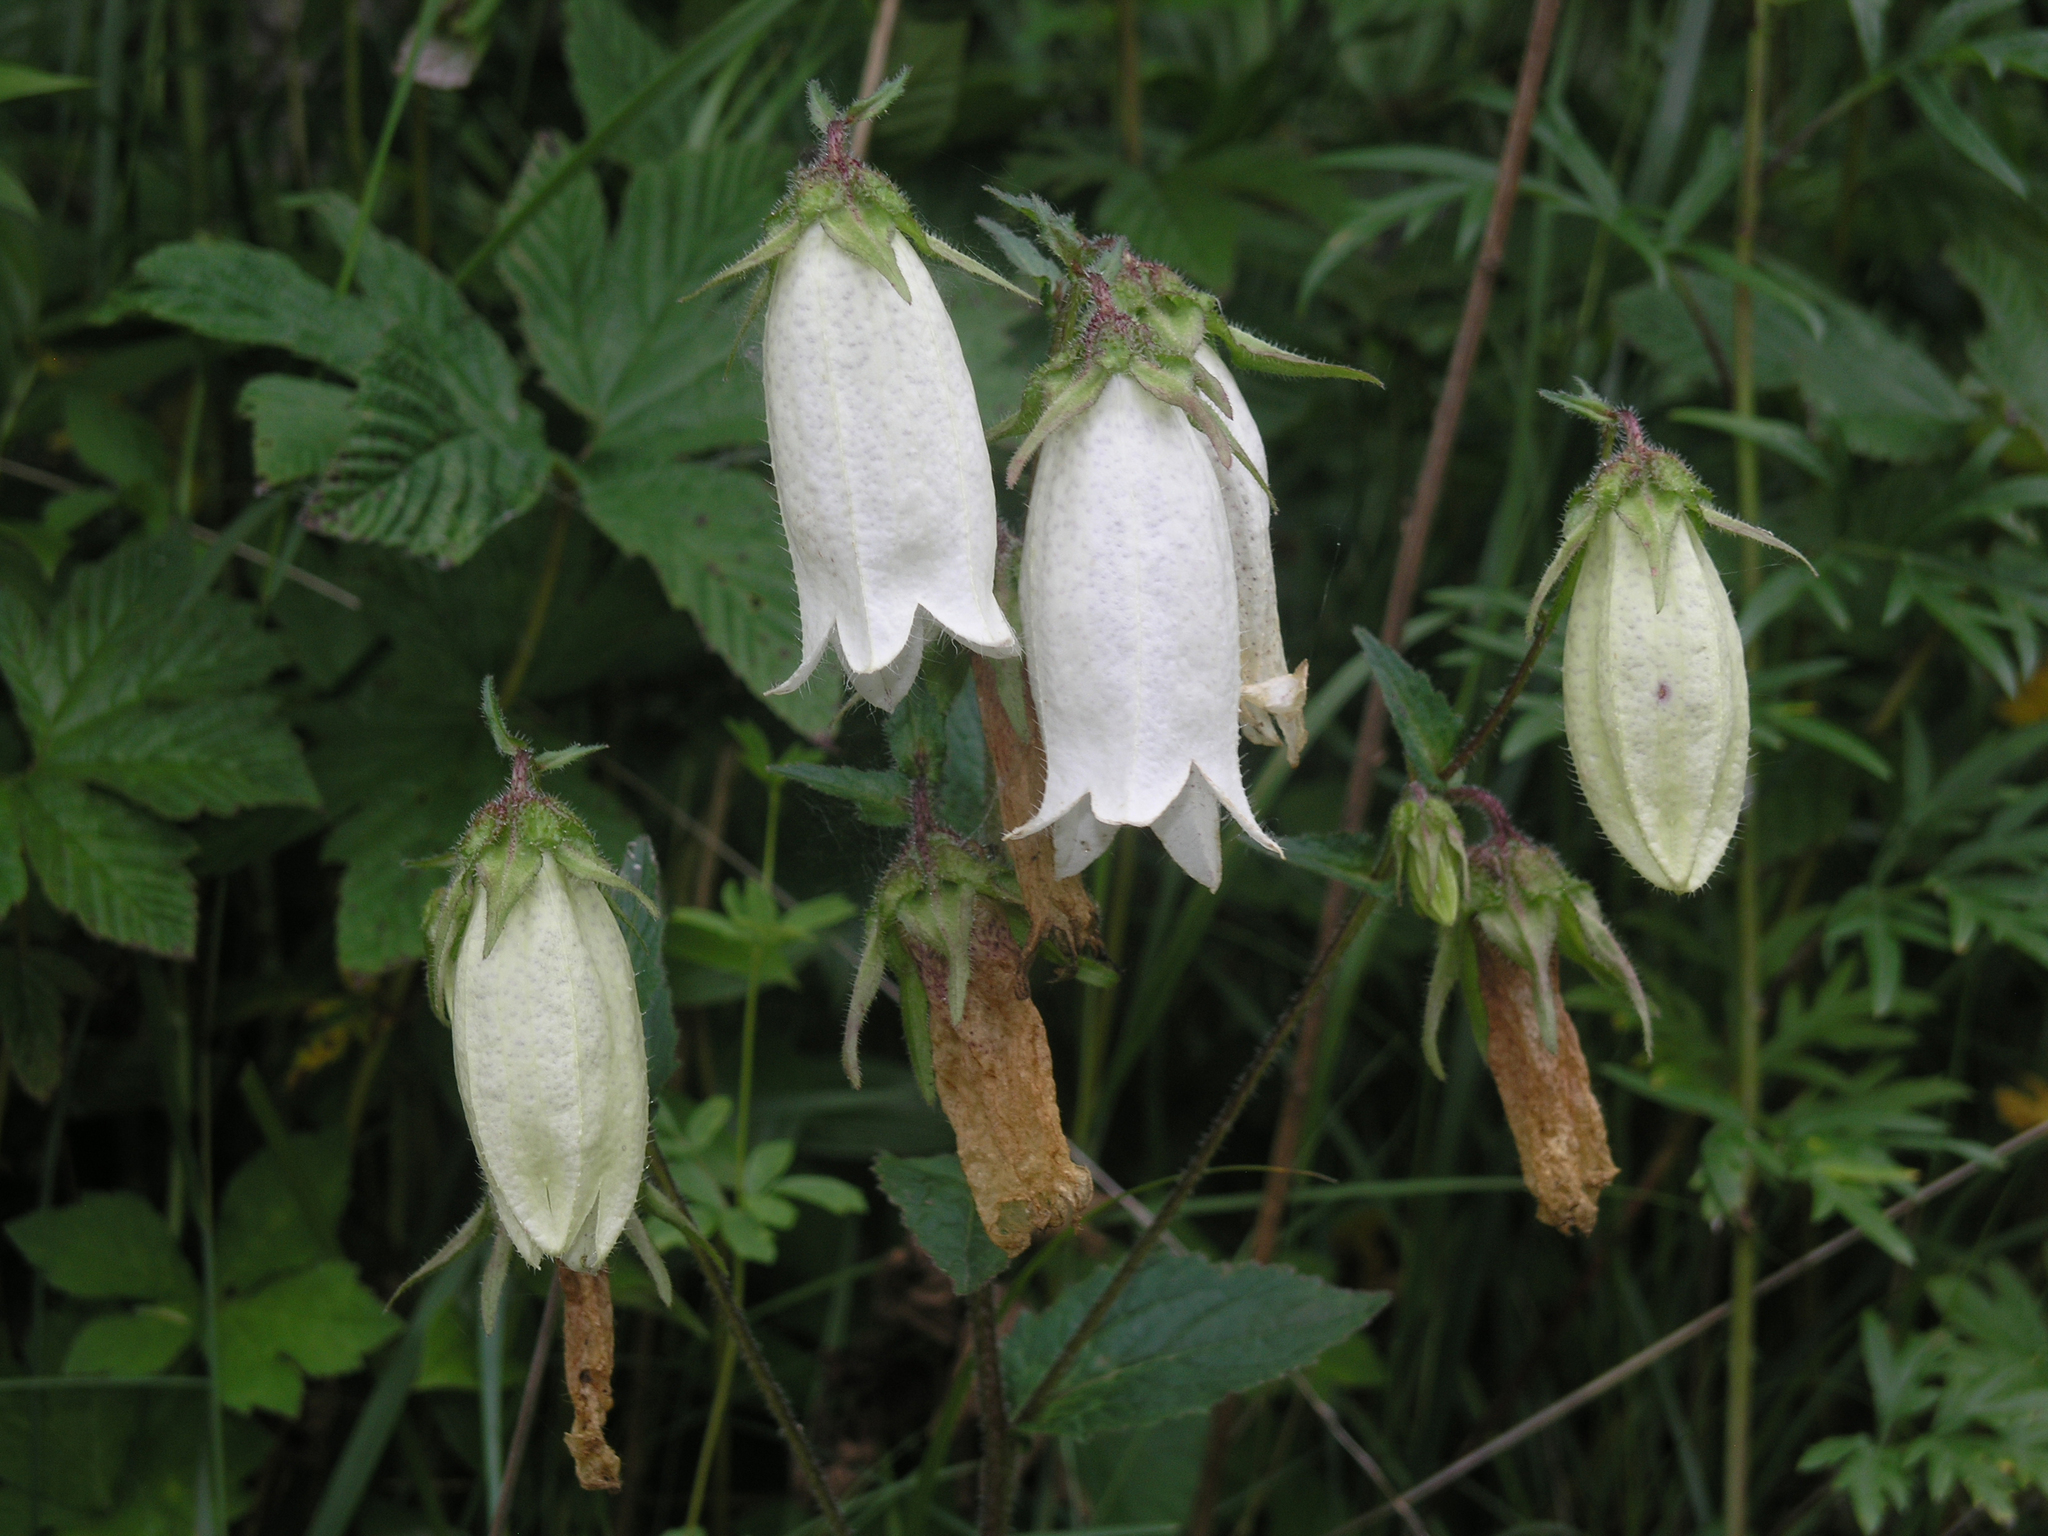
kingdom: Plantae
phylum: Tracheophyta
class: Magnoliopsida
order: Asterales
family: Campanulaceae
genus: Campanula
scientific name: Campanula punctata
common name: Spotted bellflower
